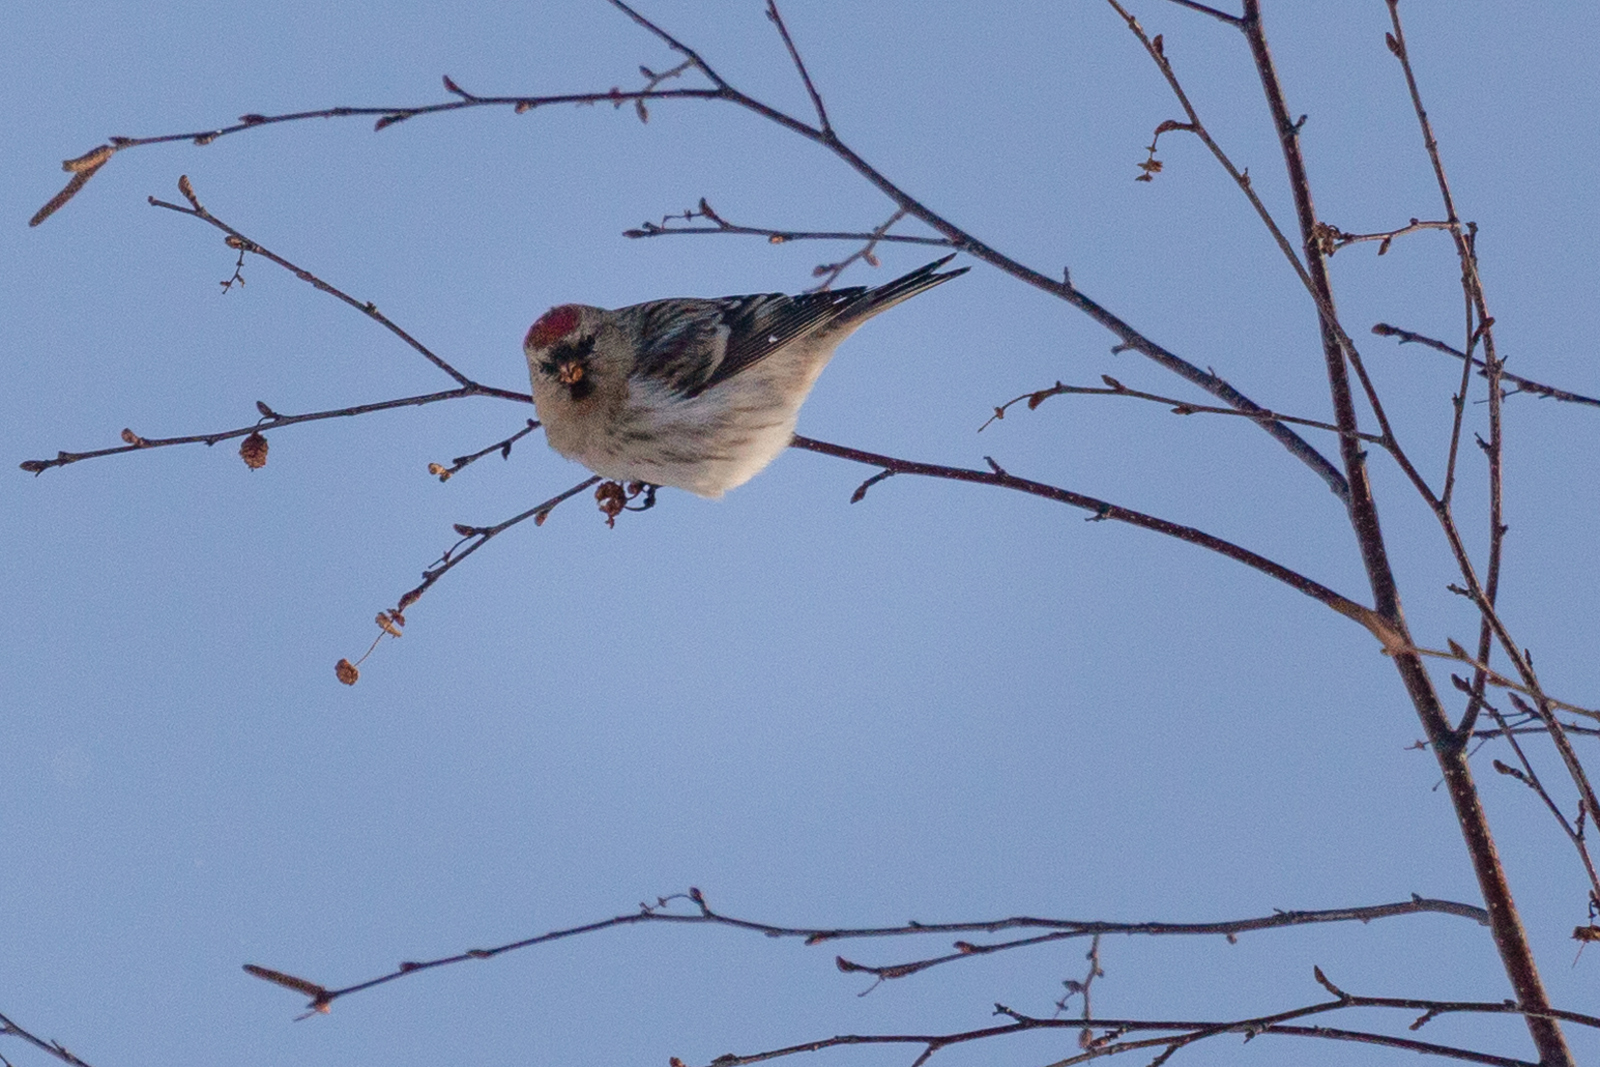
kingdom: Animalia
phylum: Chordata
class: Aves
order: Passeriformes
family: Fringillidae
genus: Acanthis
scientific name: Acanthis flammea
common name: Common redpoll
